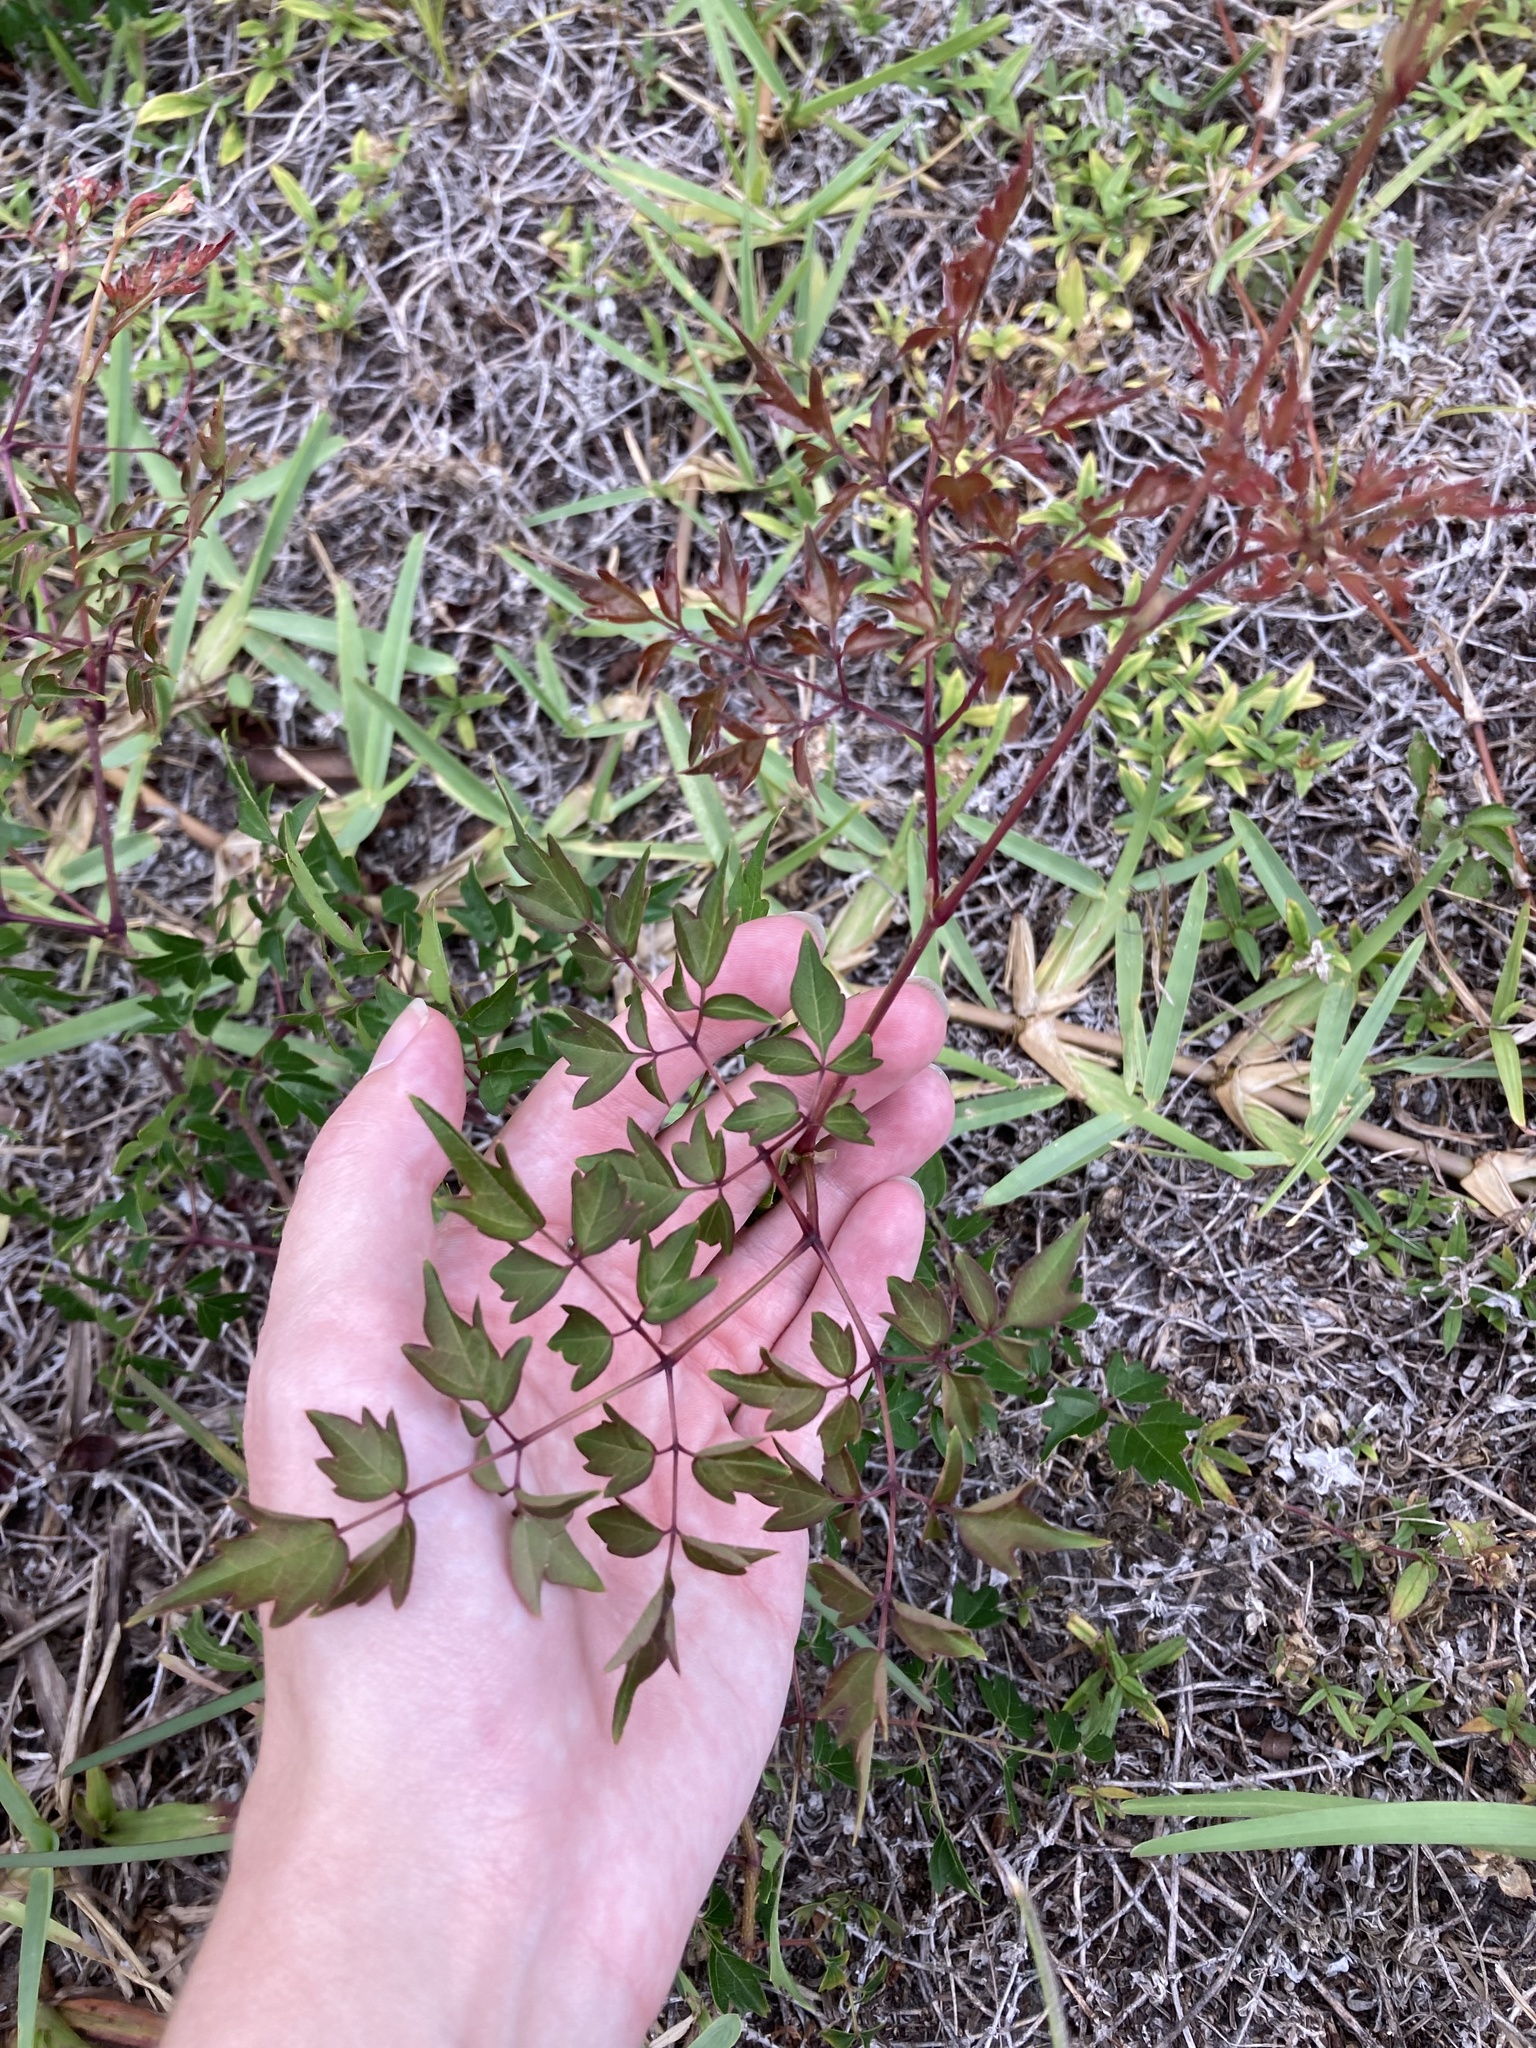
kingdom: Plantae
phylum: Tracheophyta
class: Magnoliopsida
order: Vitales
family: Vitaceae
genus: Nekemias
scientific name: Nekemias arborea
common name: Peppervine
